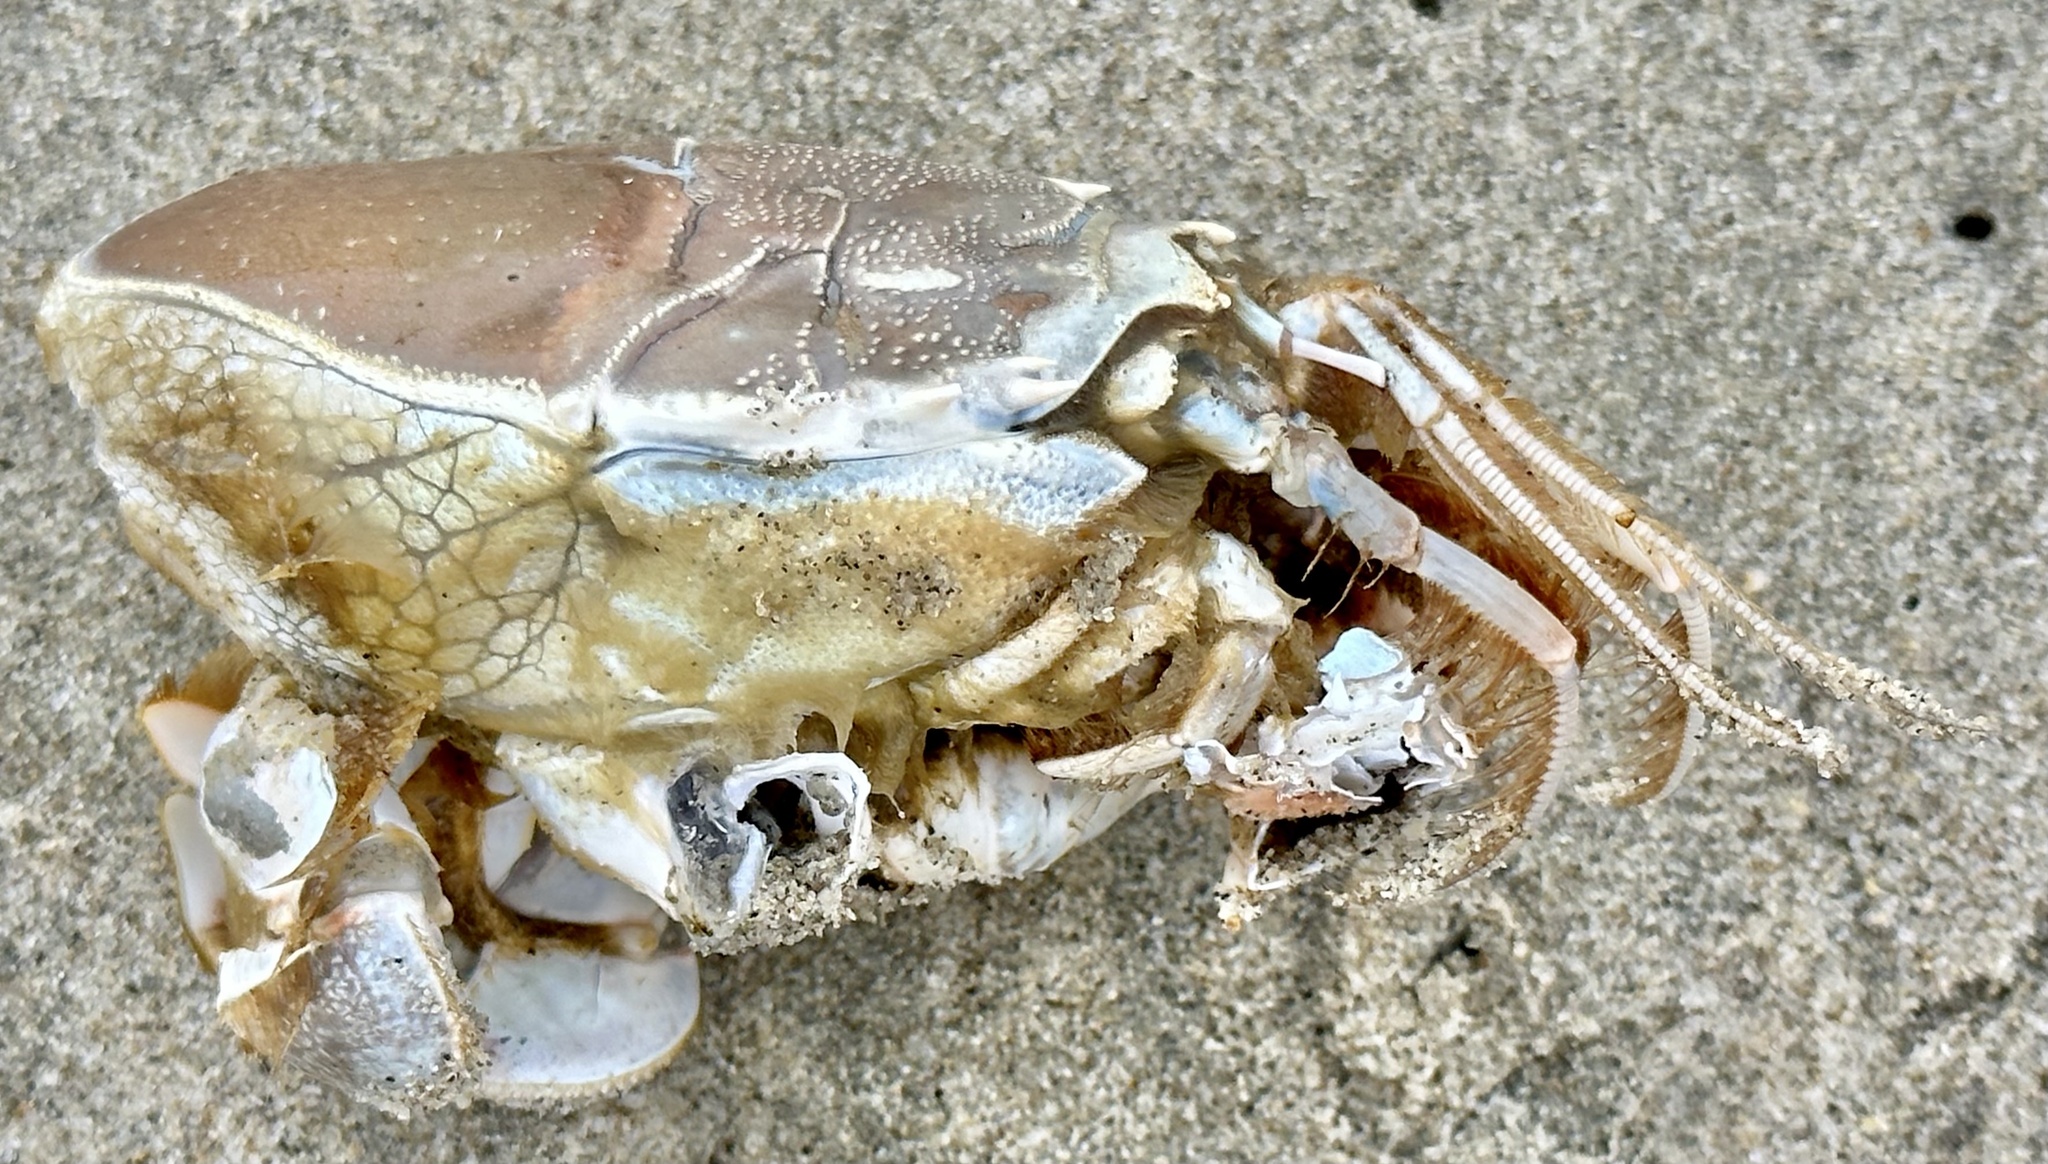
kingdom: Animalia
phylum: Arthropoda
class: Malacostraca
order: Decapoda
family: Blepharipodidae
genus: Blepharipoda
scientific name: Blepharipoda occidentalis
